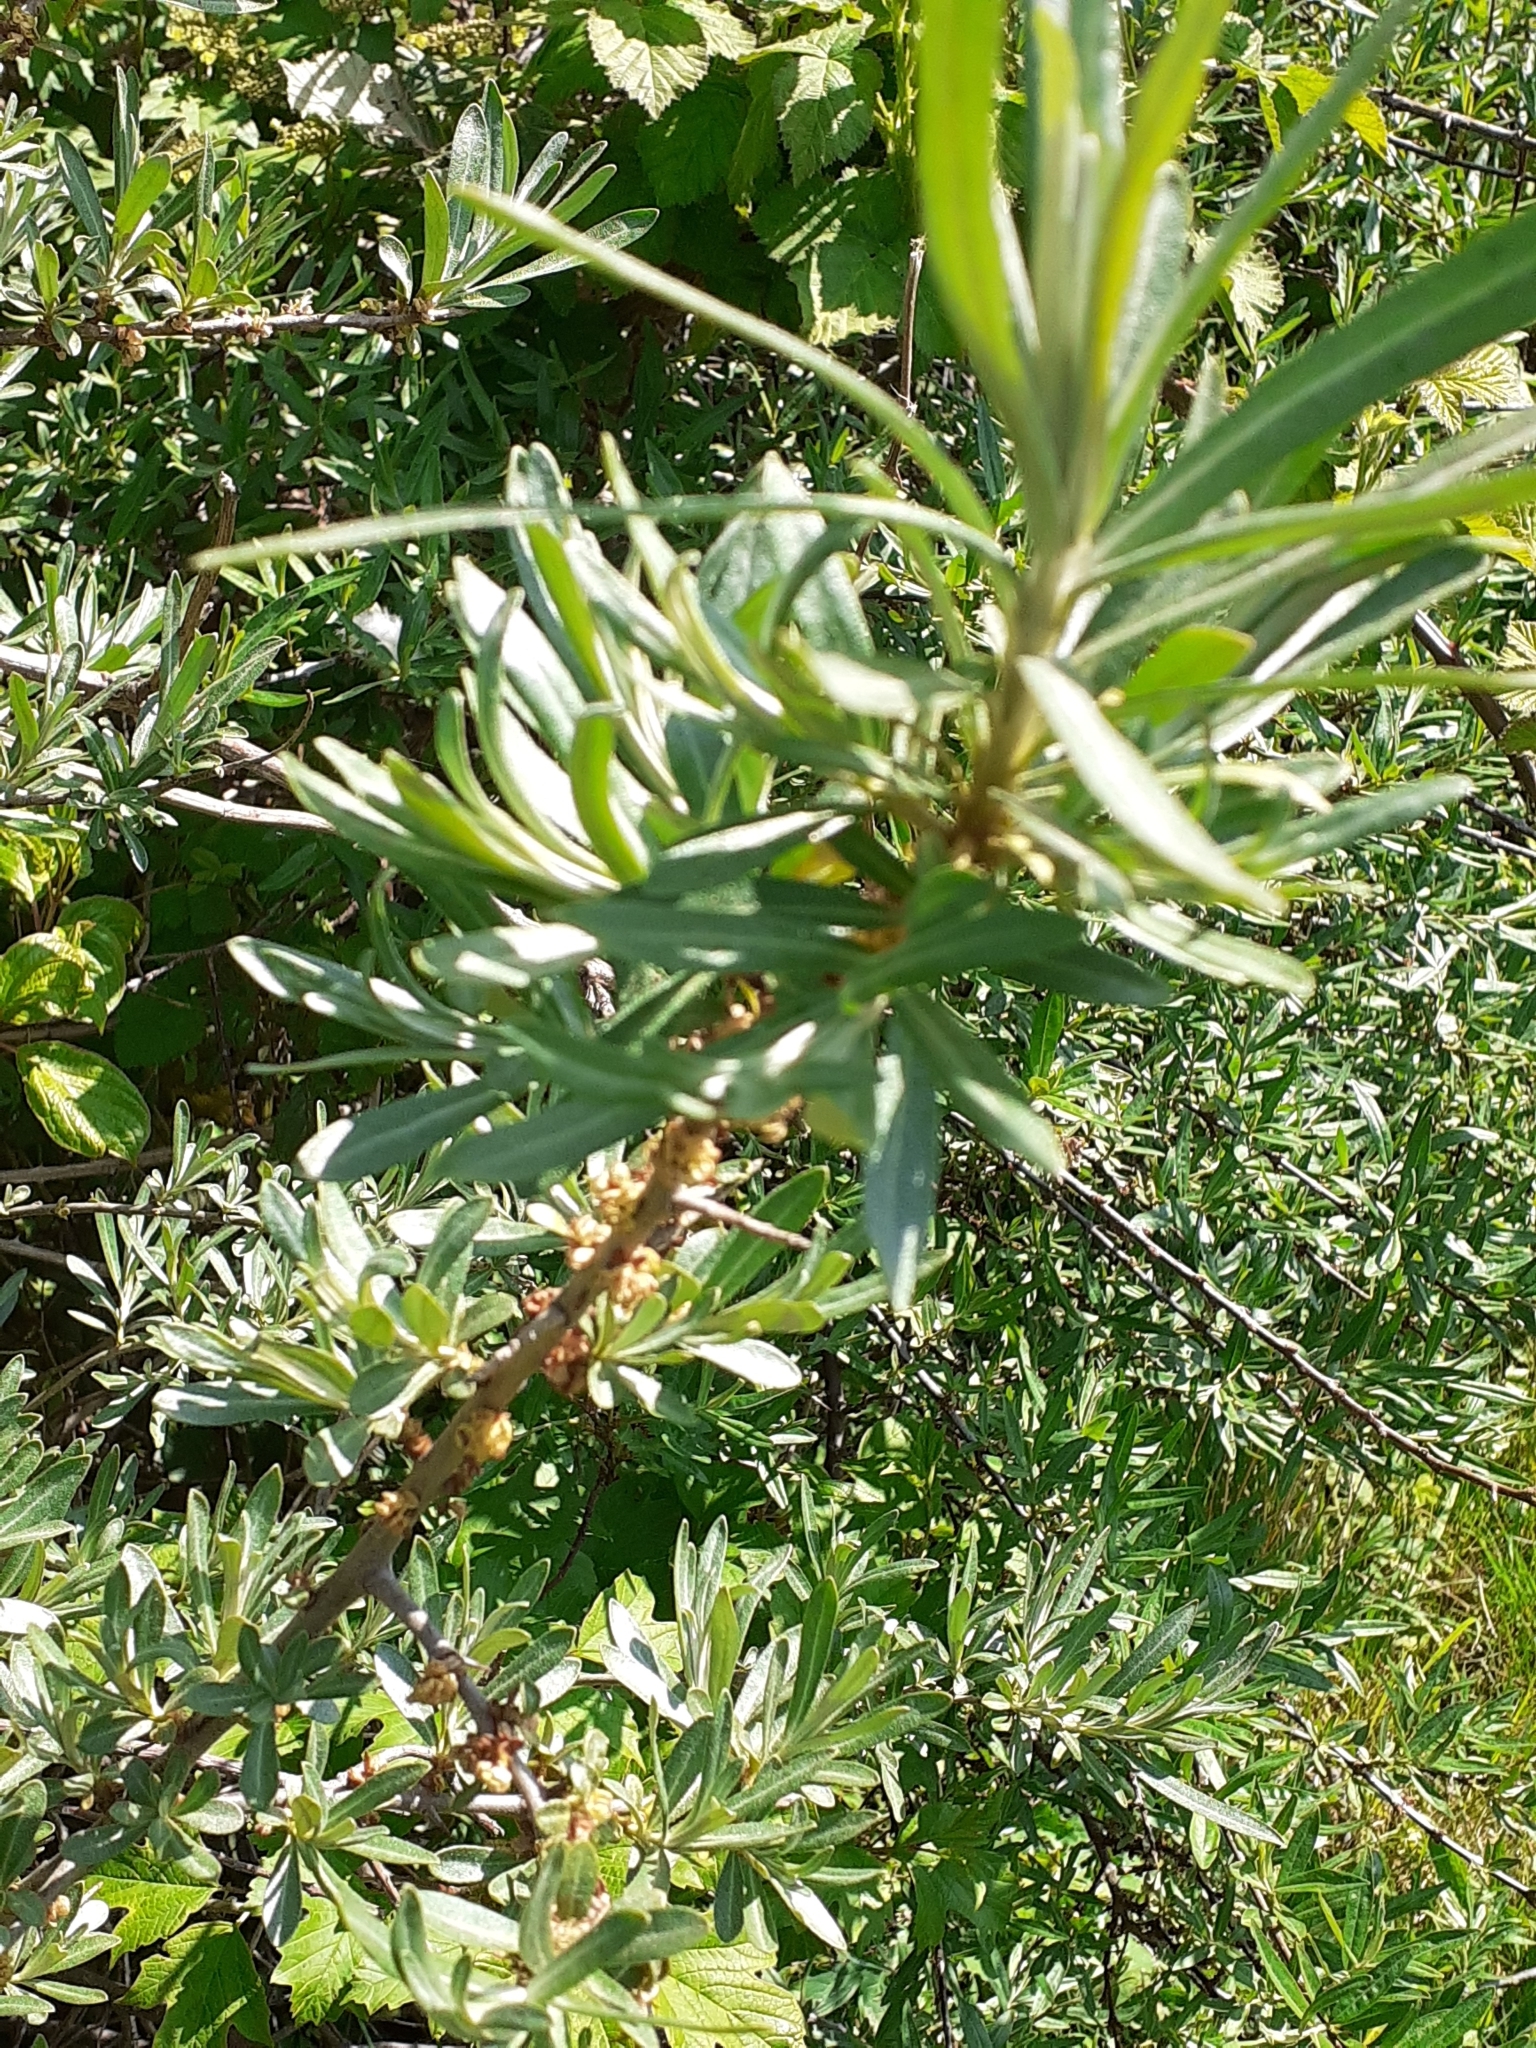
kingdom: Plantae
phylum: Tracheophyta
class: Magnoliopsida
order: Rosales
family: Elaeagnaceae
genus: Hippophae
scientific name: Hippophae rhamnoides
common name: Sea-buckthorn
